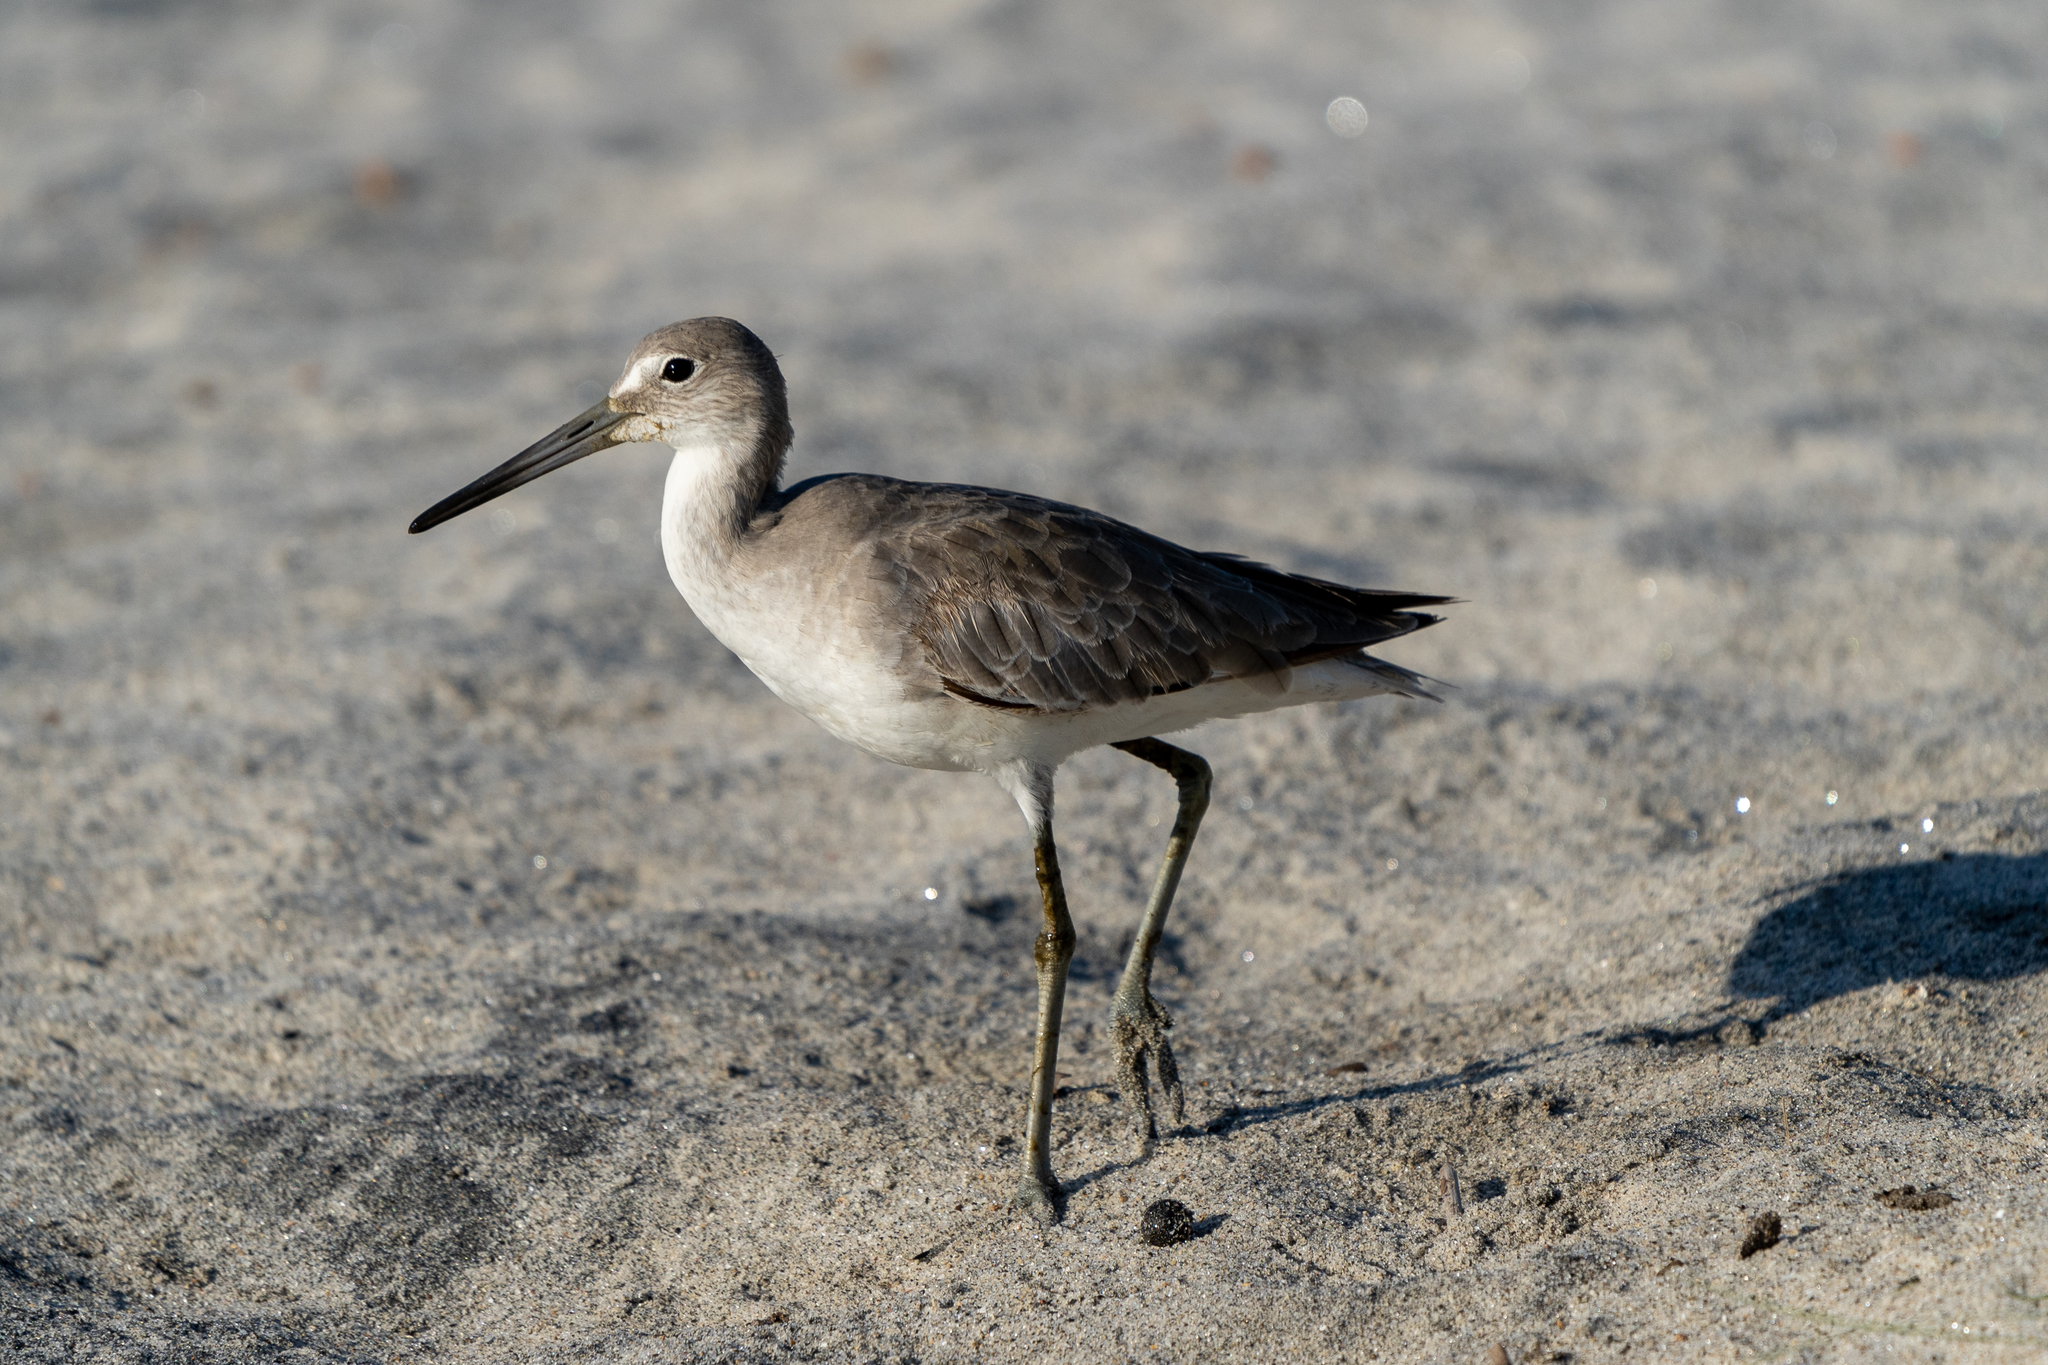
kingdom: Animalia
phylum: Chordata
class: Aves
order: Charadriiformes
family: Scolopacidae
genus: Tringa
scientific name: Tringa semipalmata
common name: Willet
